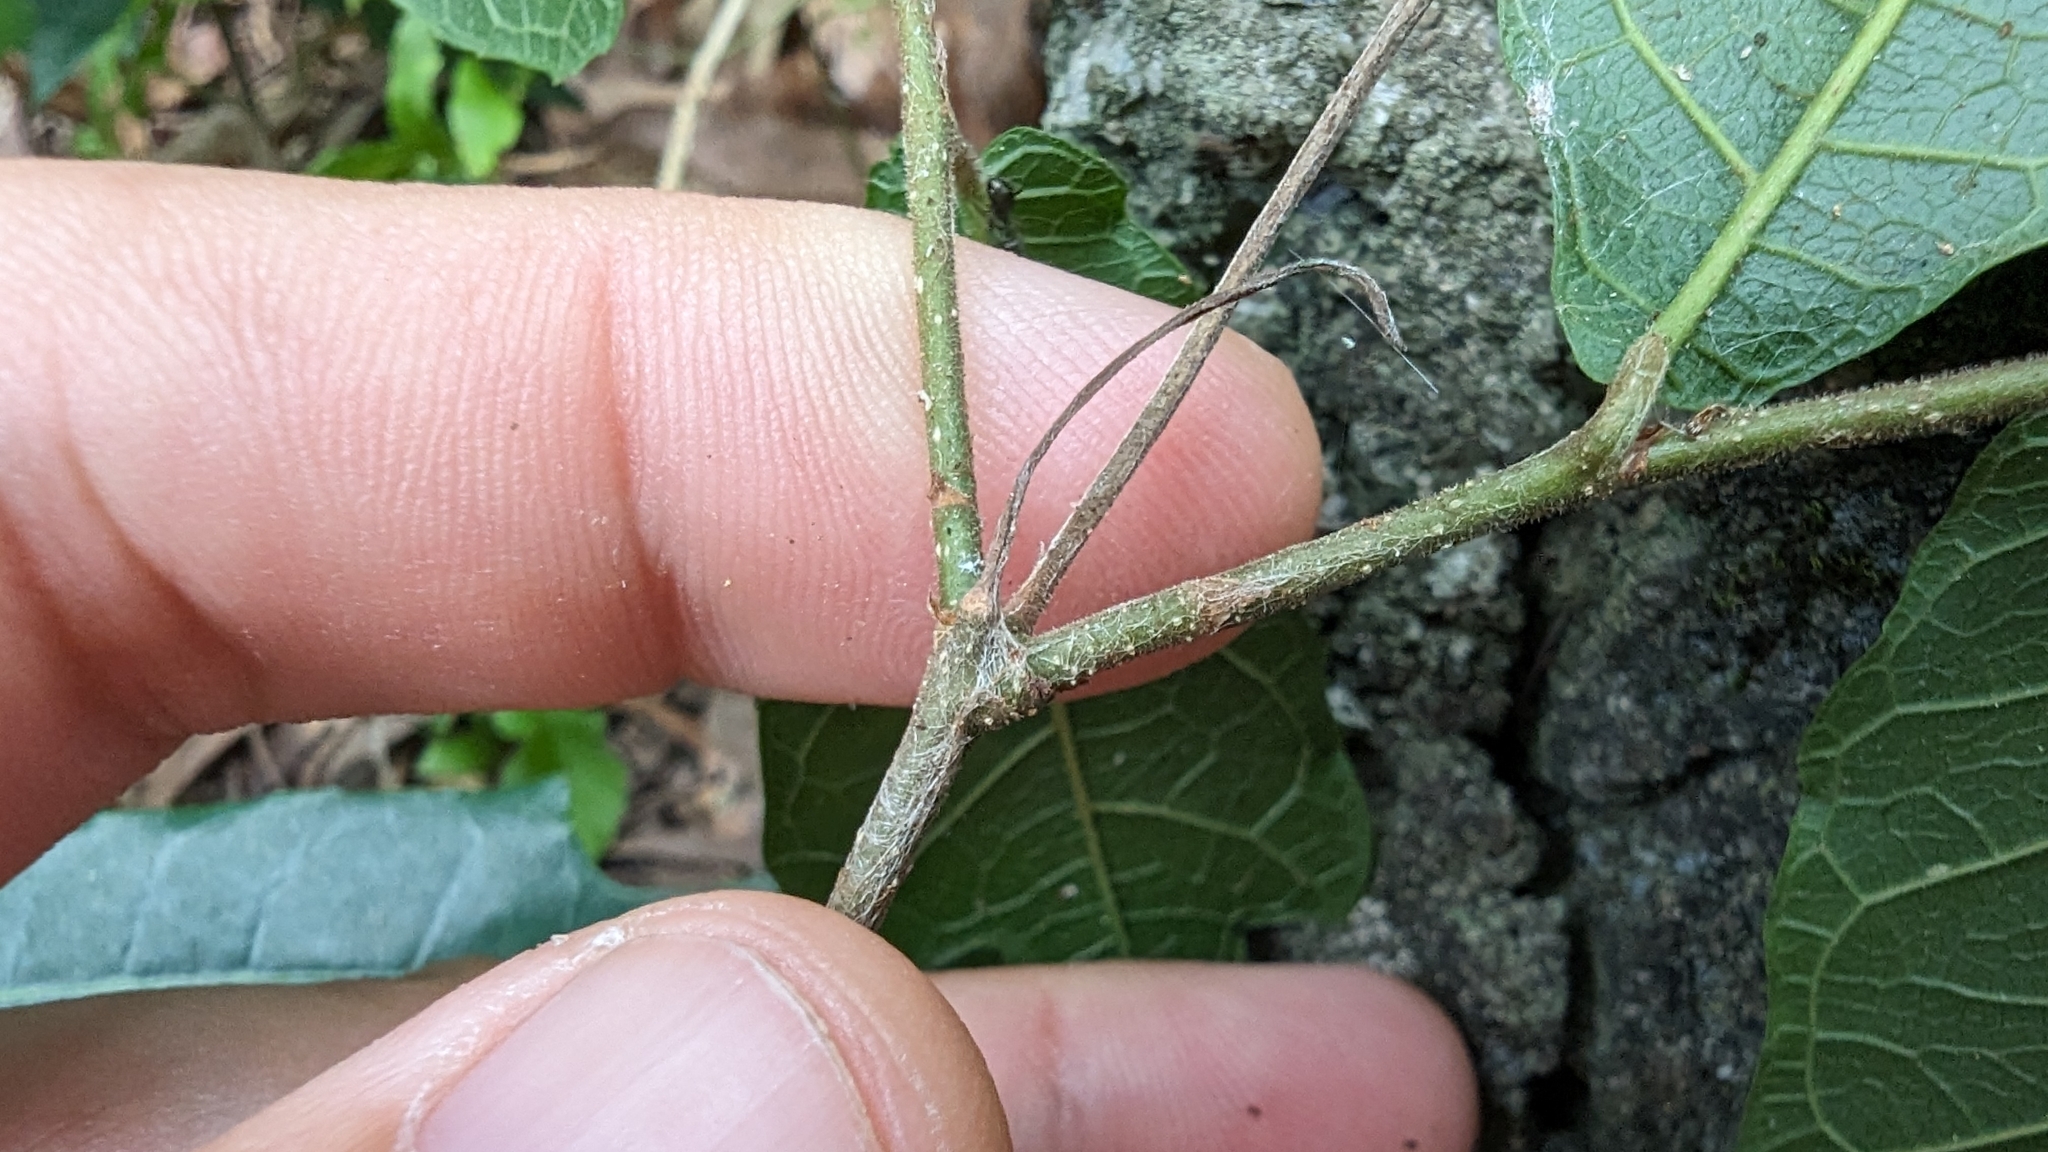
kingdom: Plantae
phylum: Tracheophyta
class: Magnoliopsida
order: Rosales
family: Moraceae
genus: Malaisia
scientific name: Malaisia scandens
